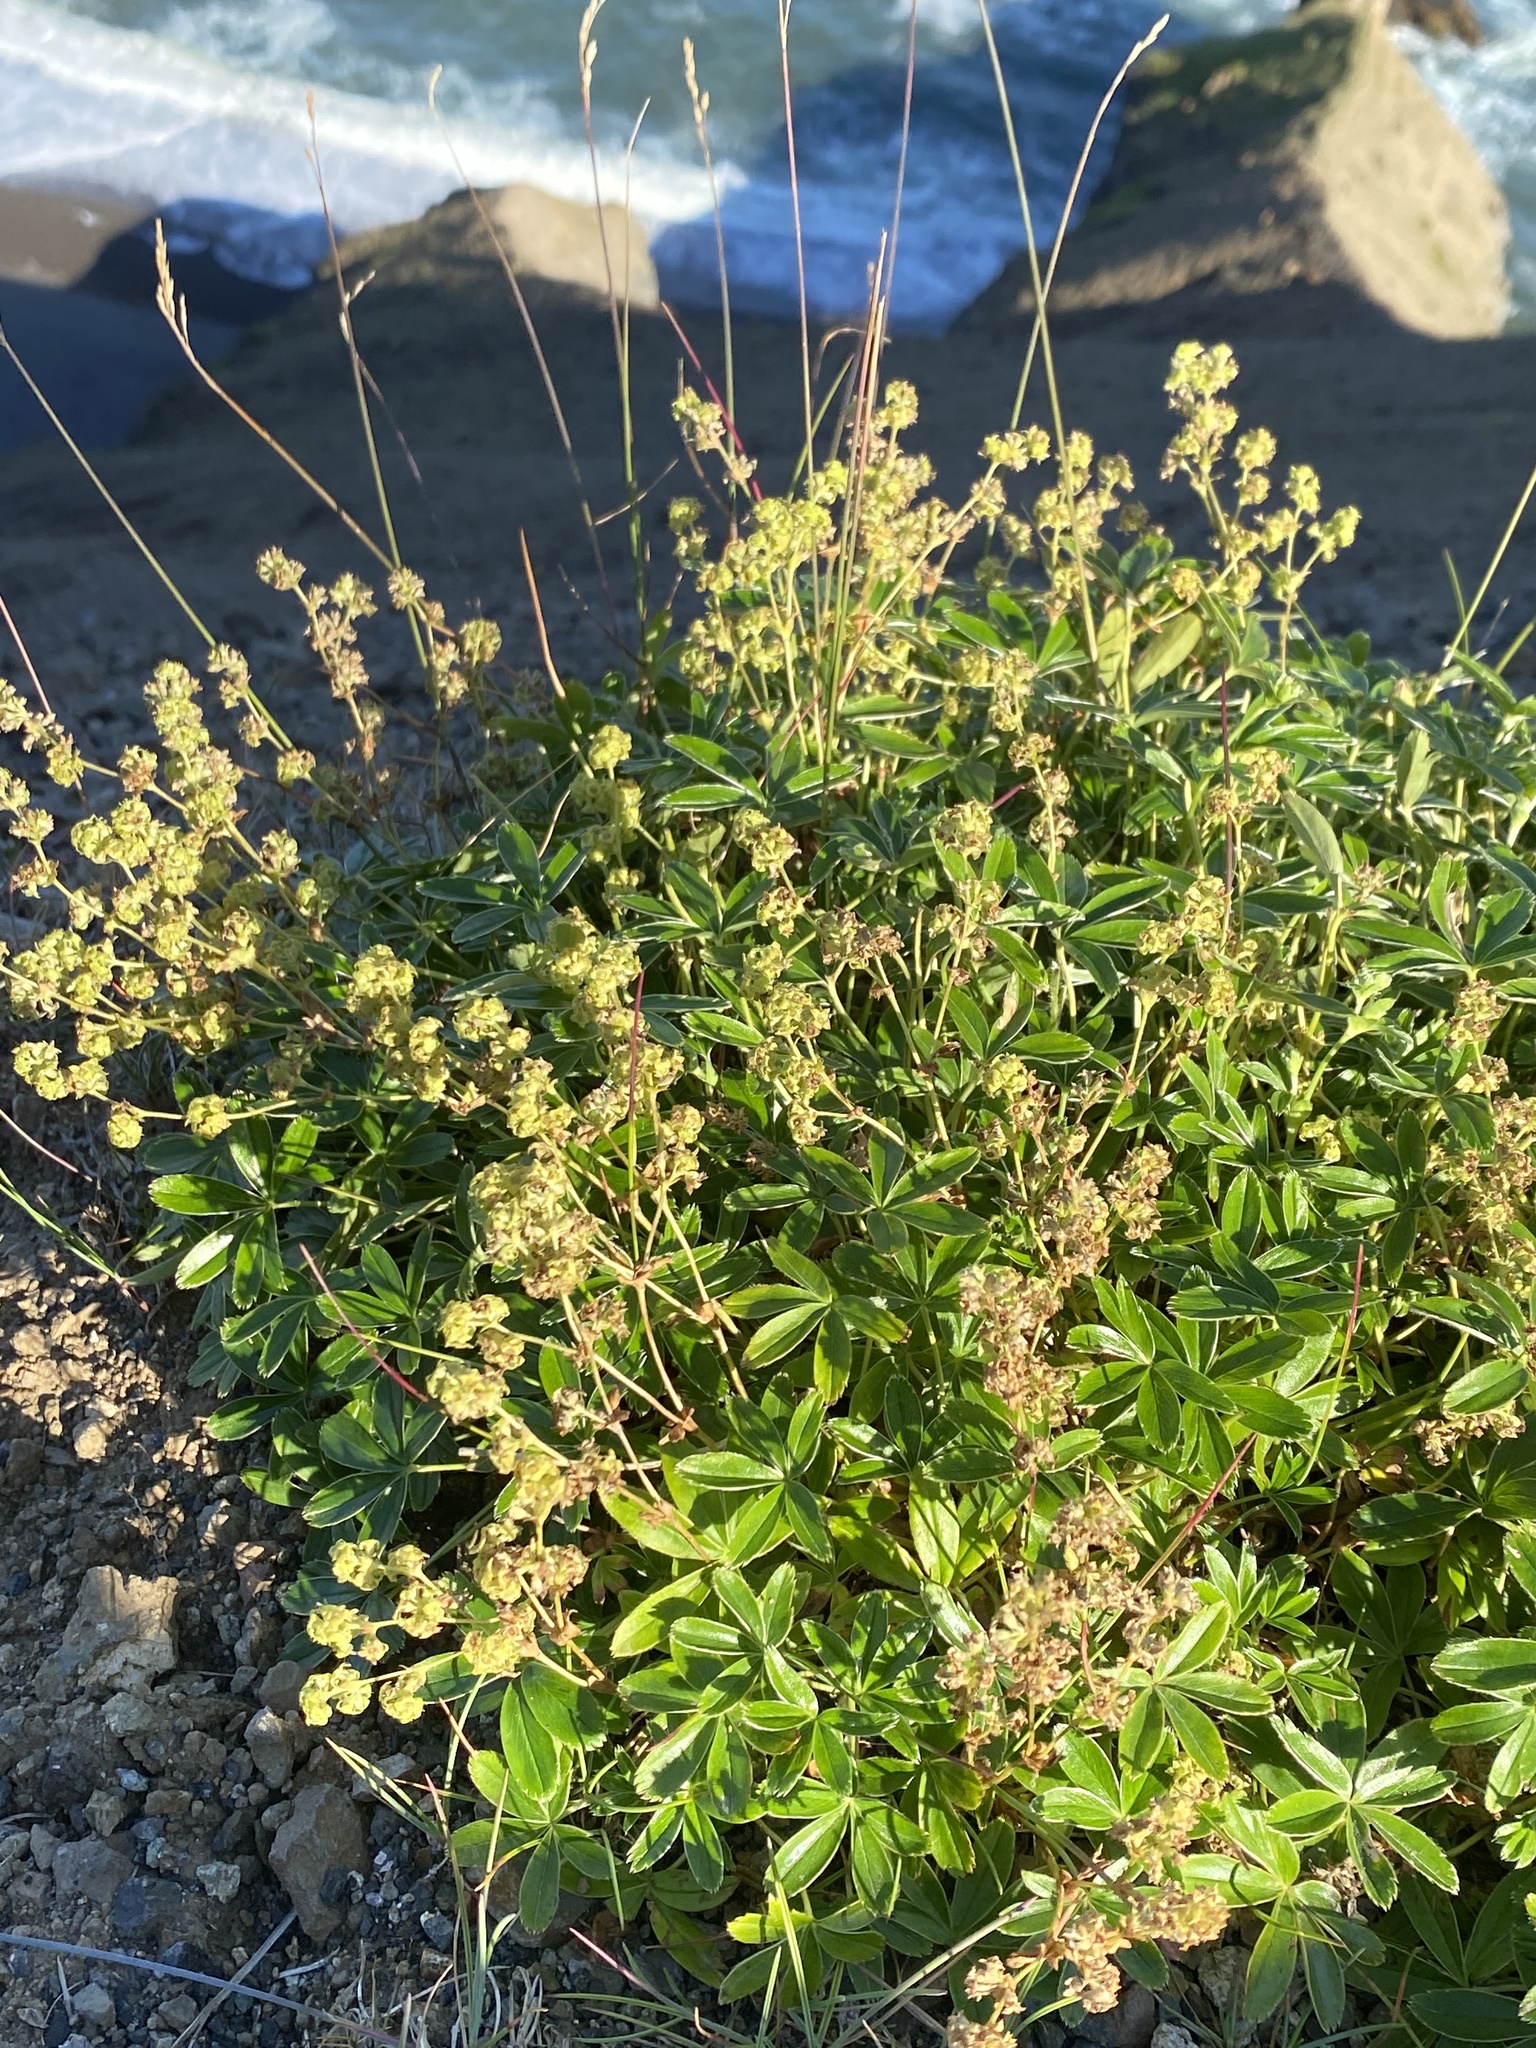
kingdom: Plantae
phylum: Tracheophyta
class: Magnoliopsida
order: Rosales
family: Rosaceae
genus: Alchemilla
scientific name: Alchemilla alpina
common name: Alpine lady's-mantle
